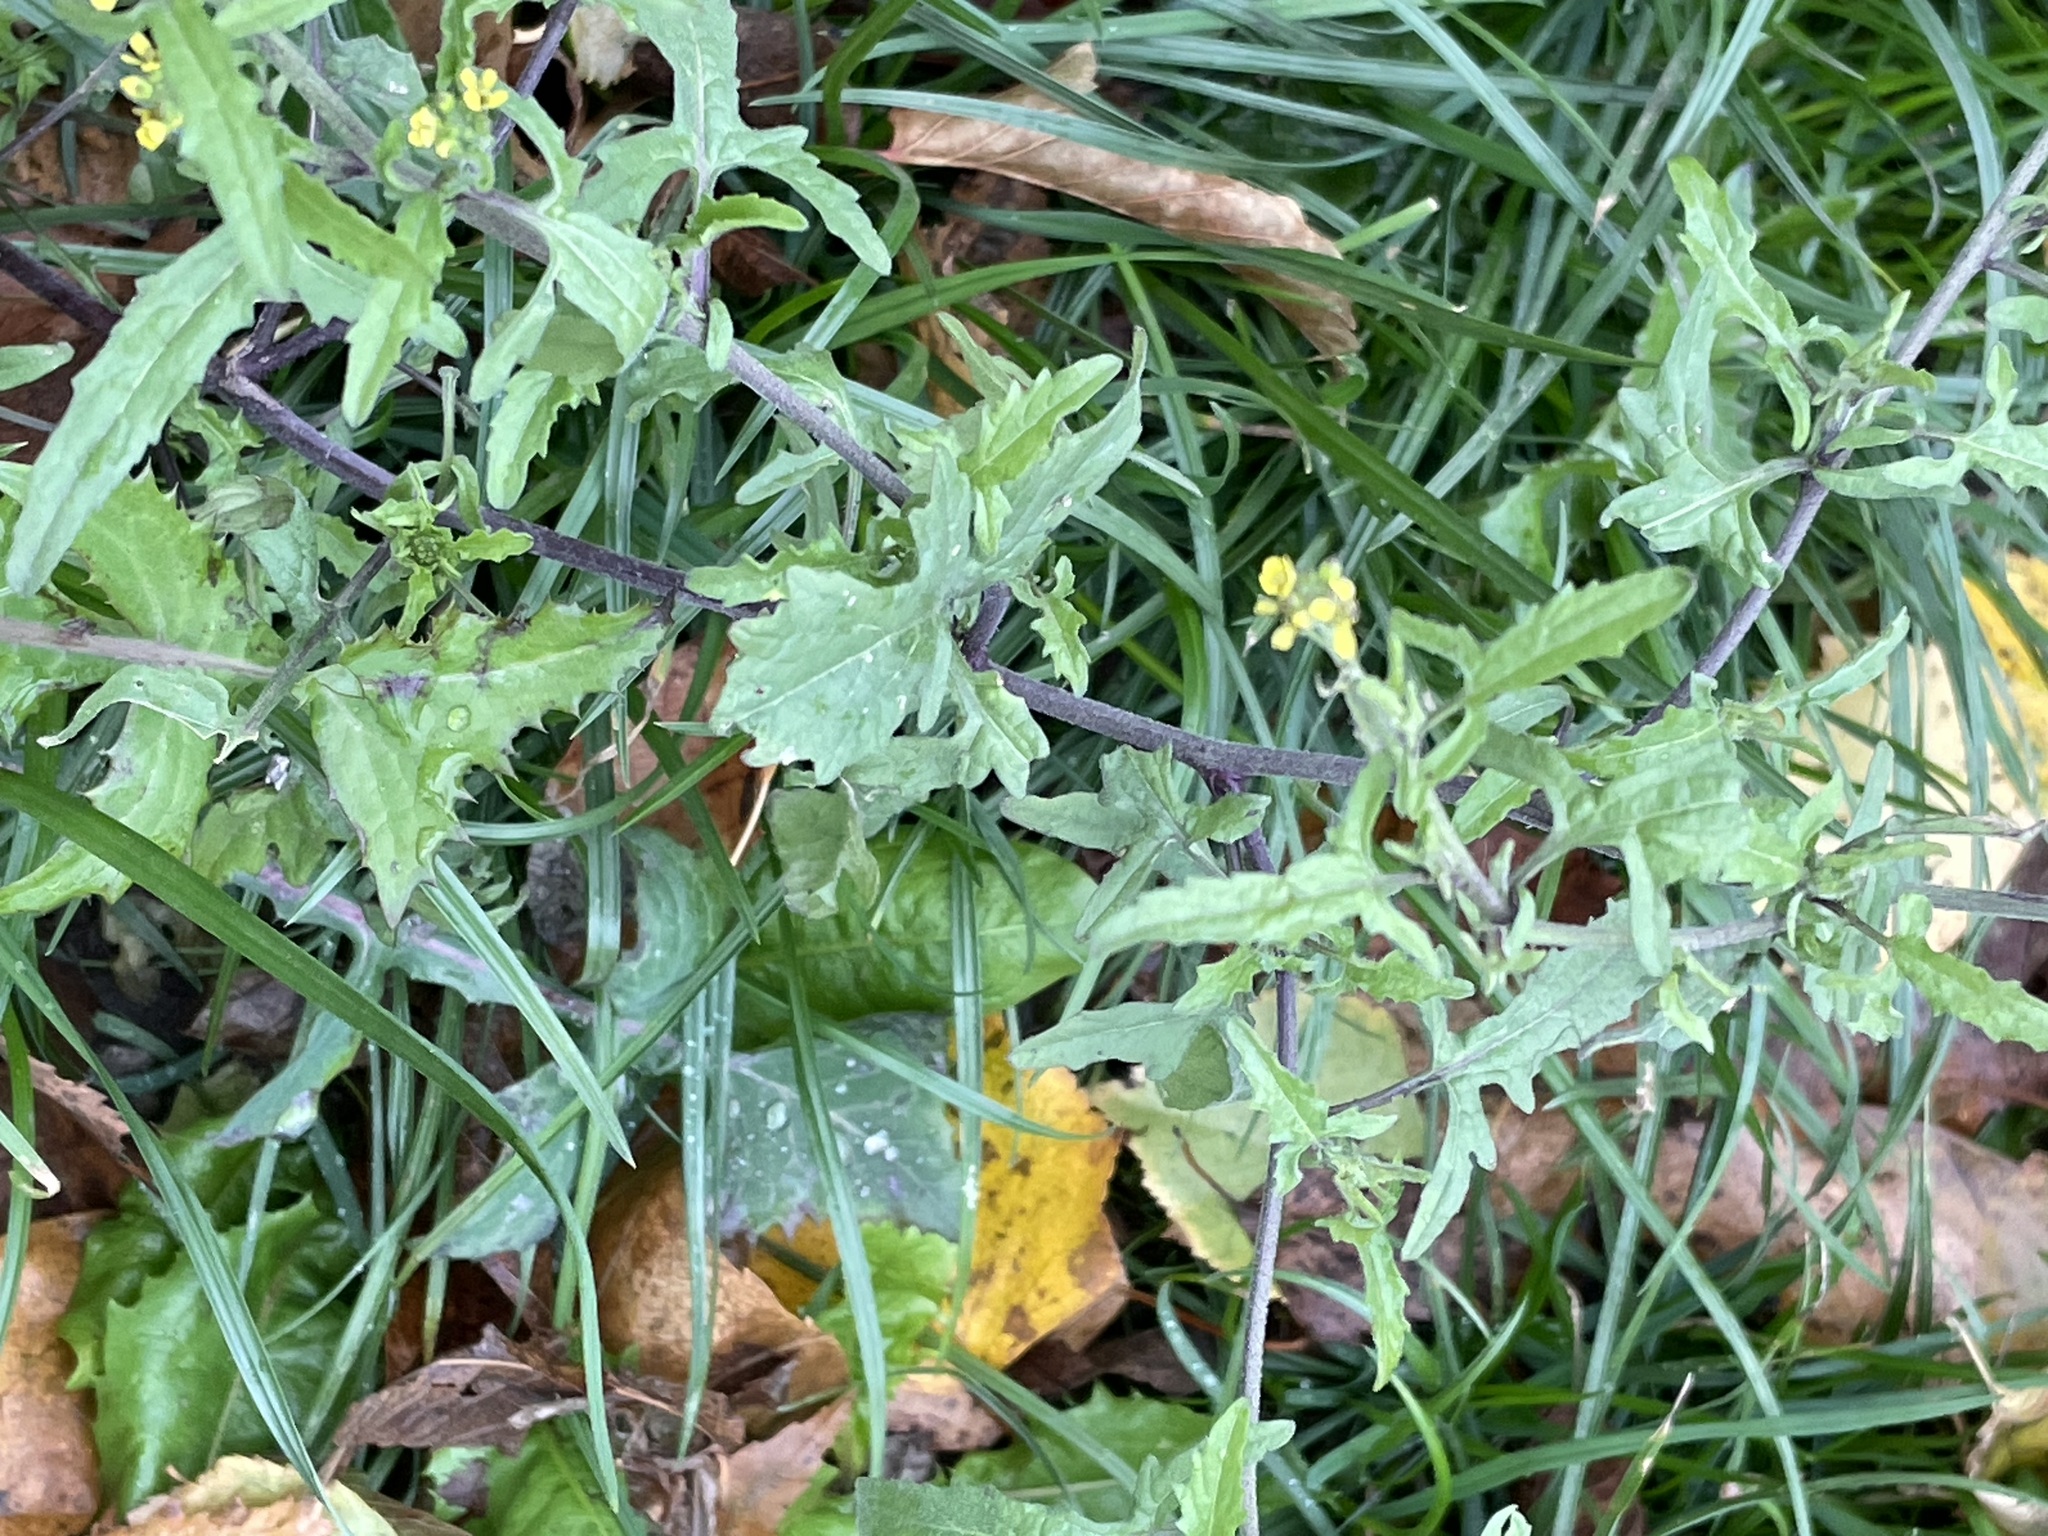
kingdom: Plantae
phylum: Tracheophyta
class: Magnoliopsida
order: Brassicales
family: Brassicaceae
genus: Sisymbrium
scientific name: Sisymbrium officinale
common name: Hedge mustard
